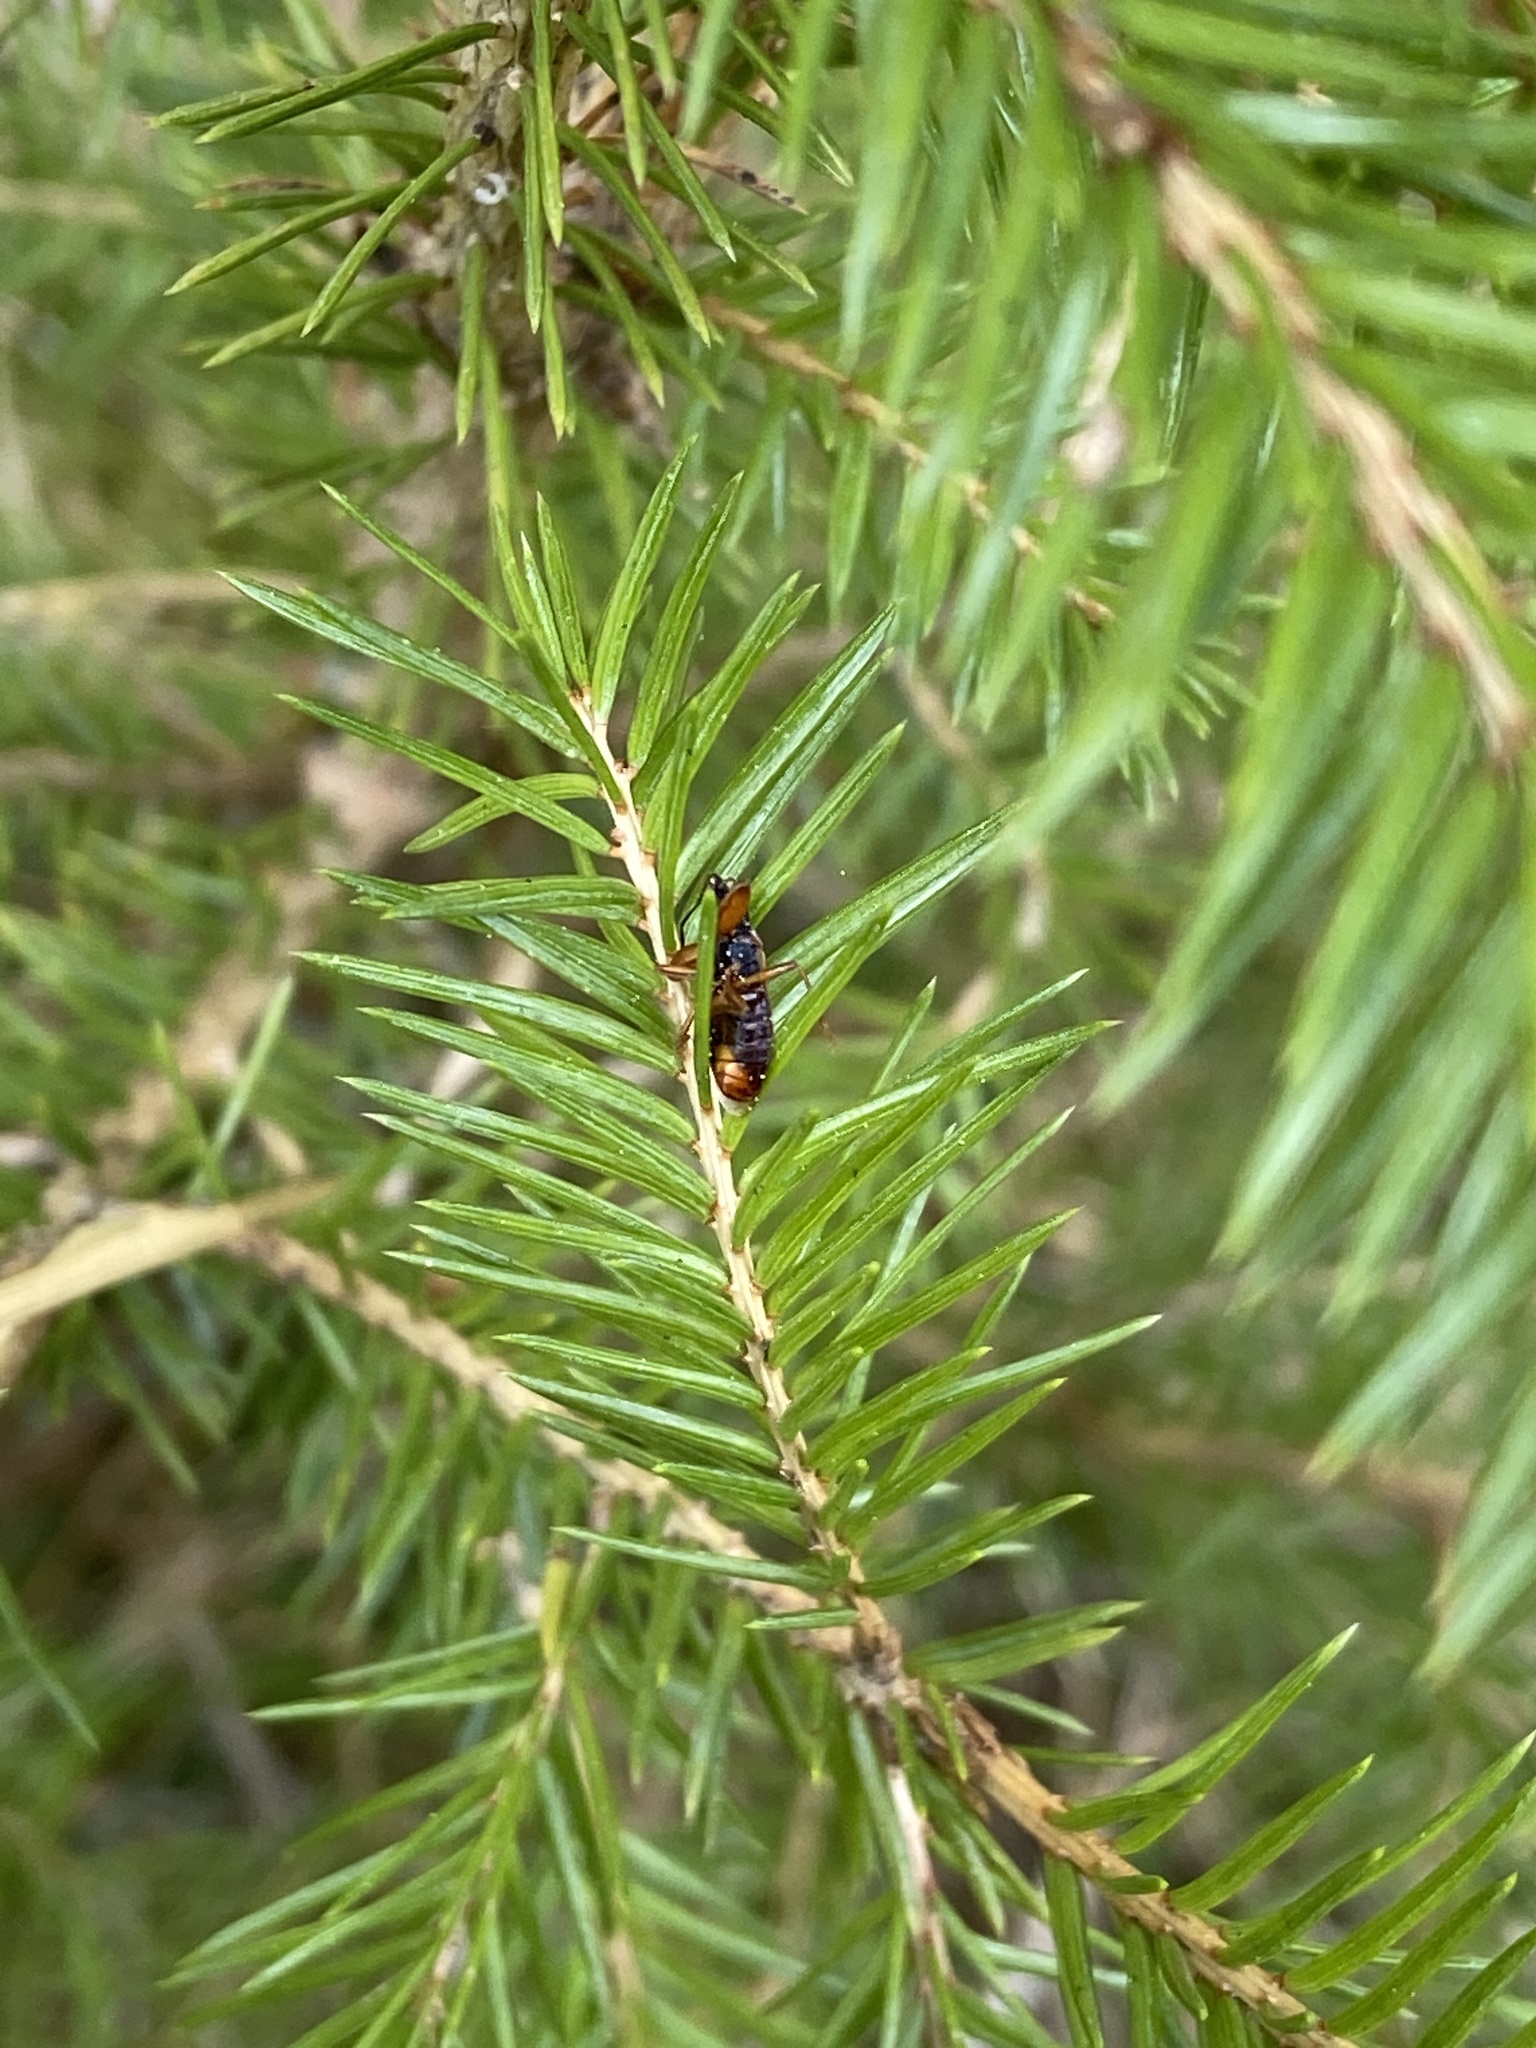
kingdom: Animalia
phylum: Arthropoda
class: Insecta
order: Hemiptera
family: Rhyparochromidae
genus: Gastrodes
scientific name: Gastrodes abietum
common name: Spruce cone bug
